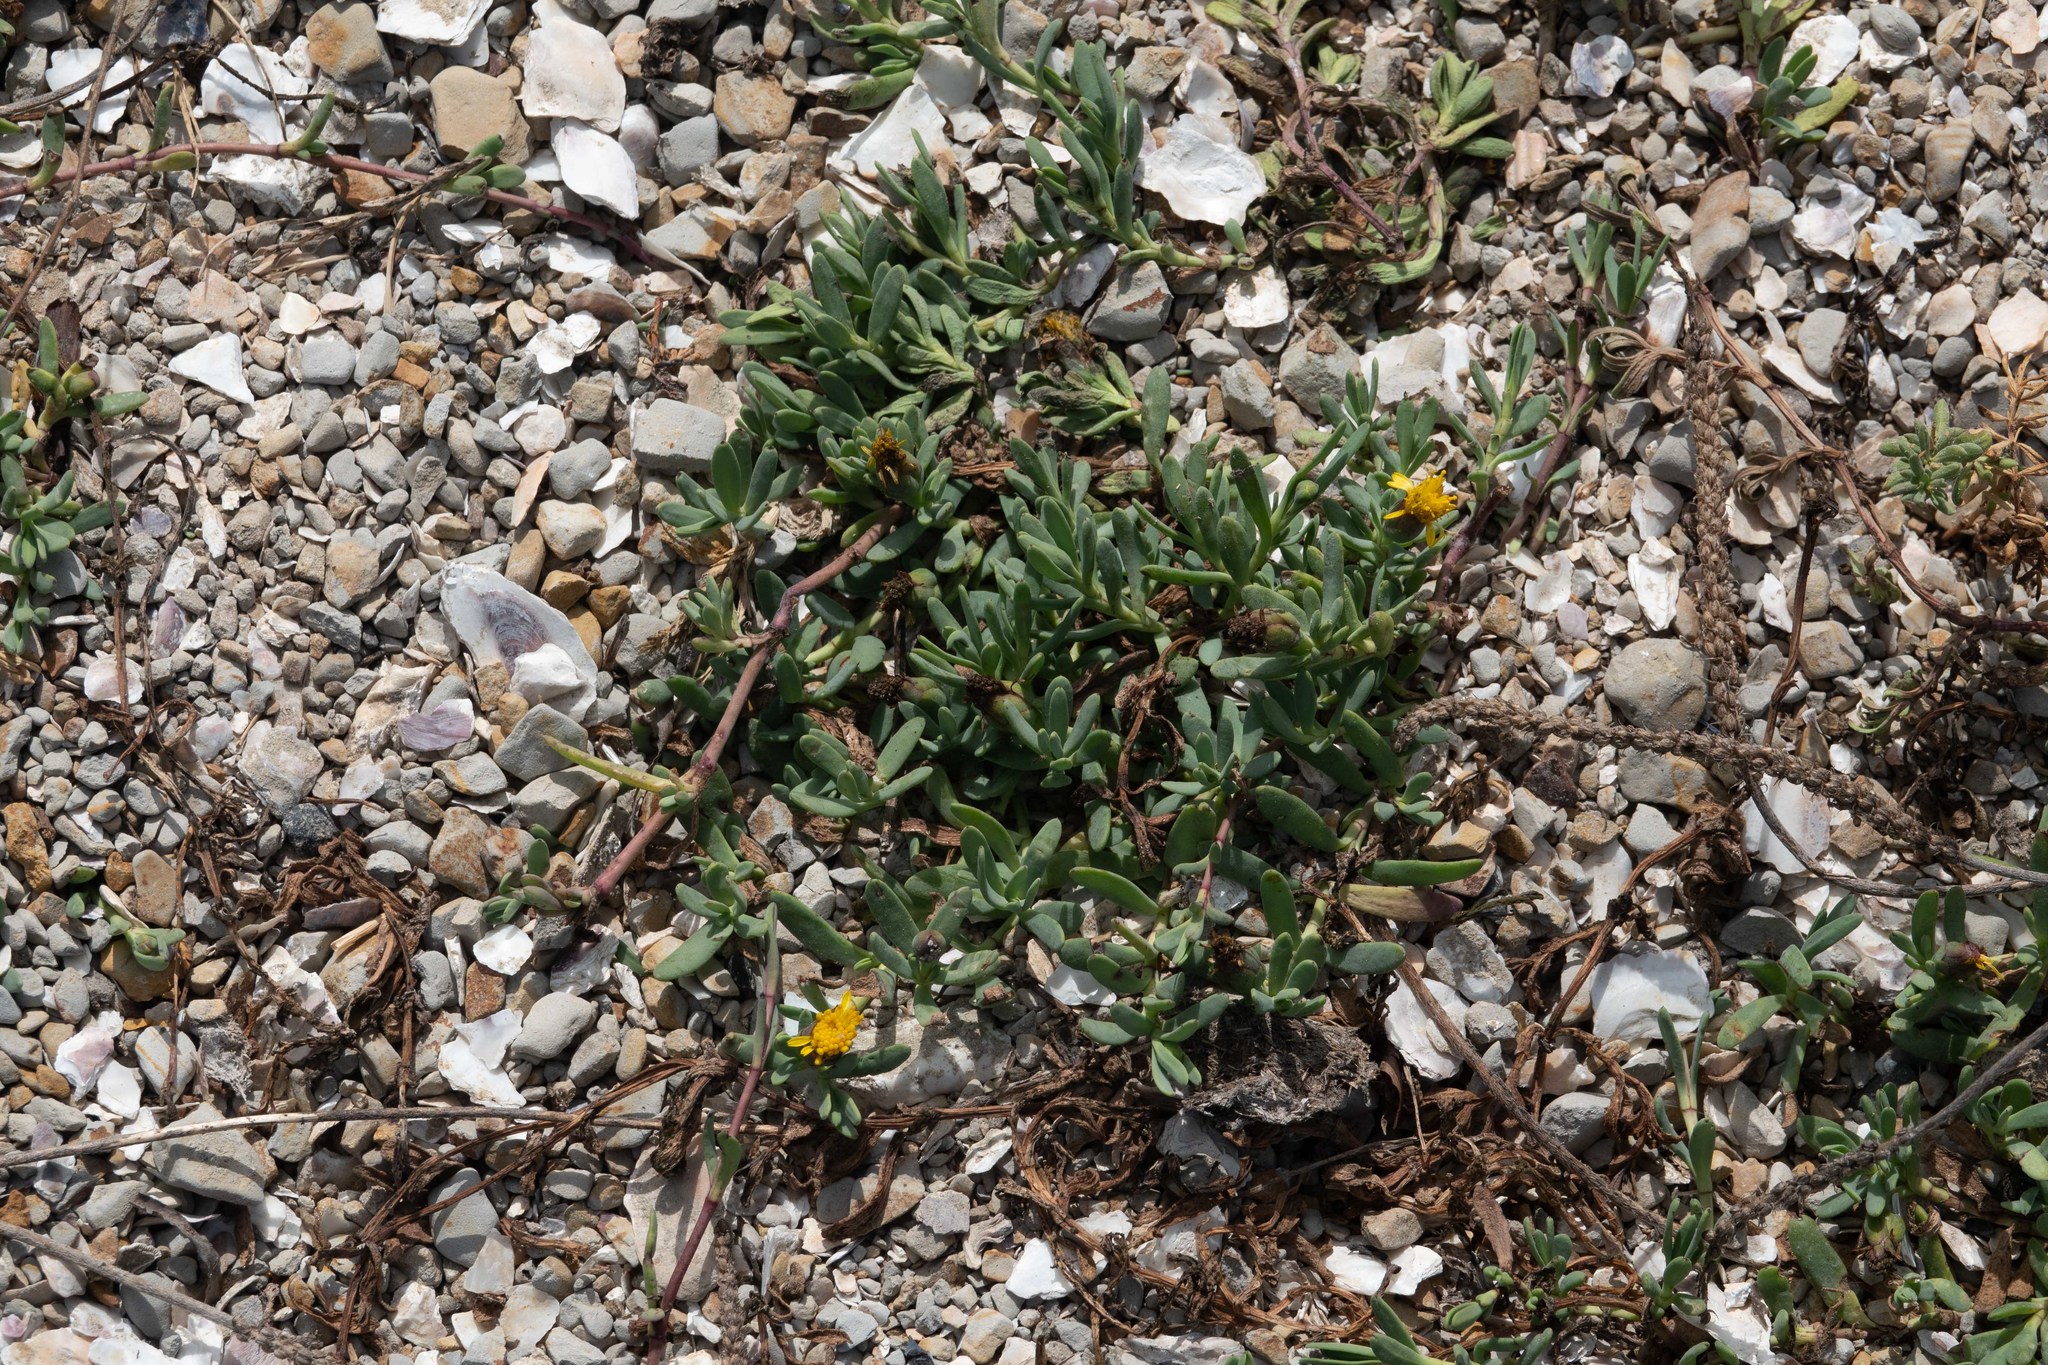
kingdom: Plantae
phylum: Tracheophyta
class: Magnoliopsida
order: Asterales
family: Asteraceae
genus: Jaumea
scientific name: Jaumea carnosa
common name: Fleshy jaumea
